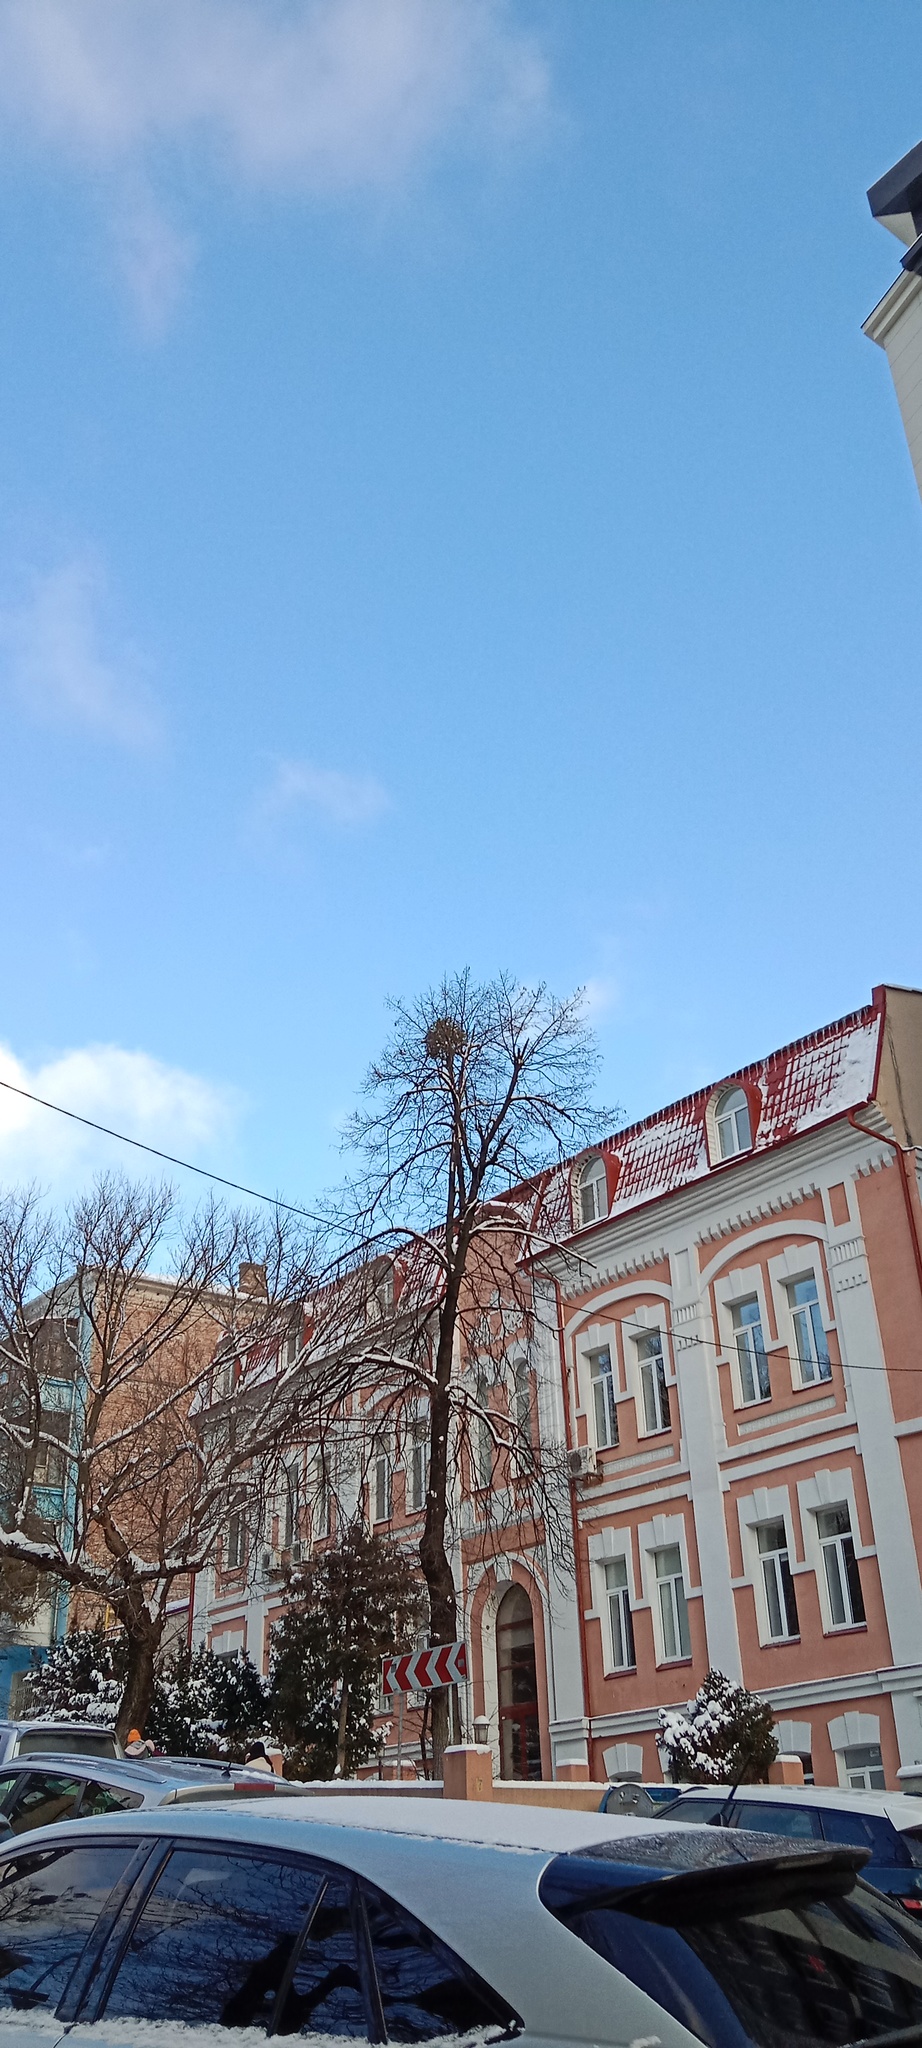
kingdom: Plantae
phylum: Tracheophyta
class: Magnoliopsida
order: Santalales
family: Viscaceae
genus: Viscum
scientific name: Viscum album
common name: Mistletoe
